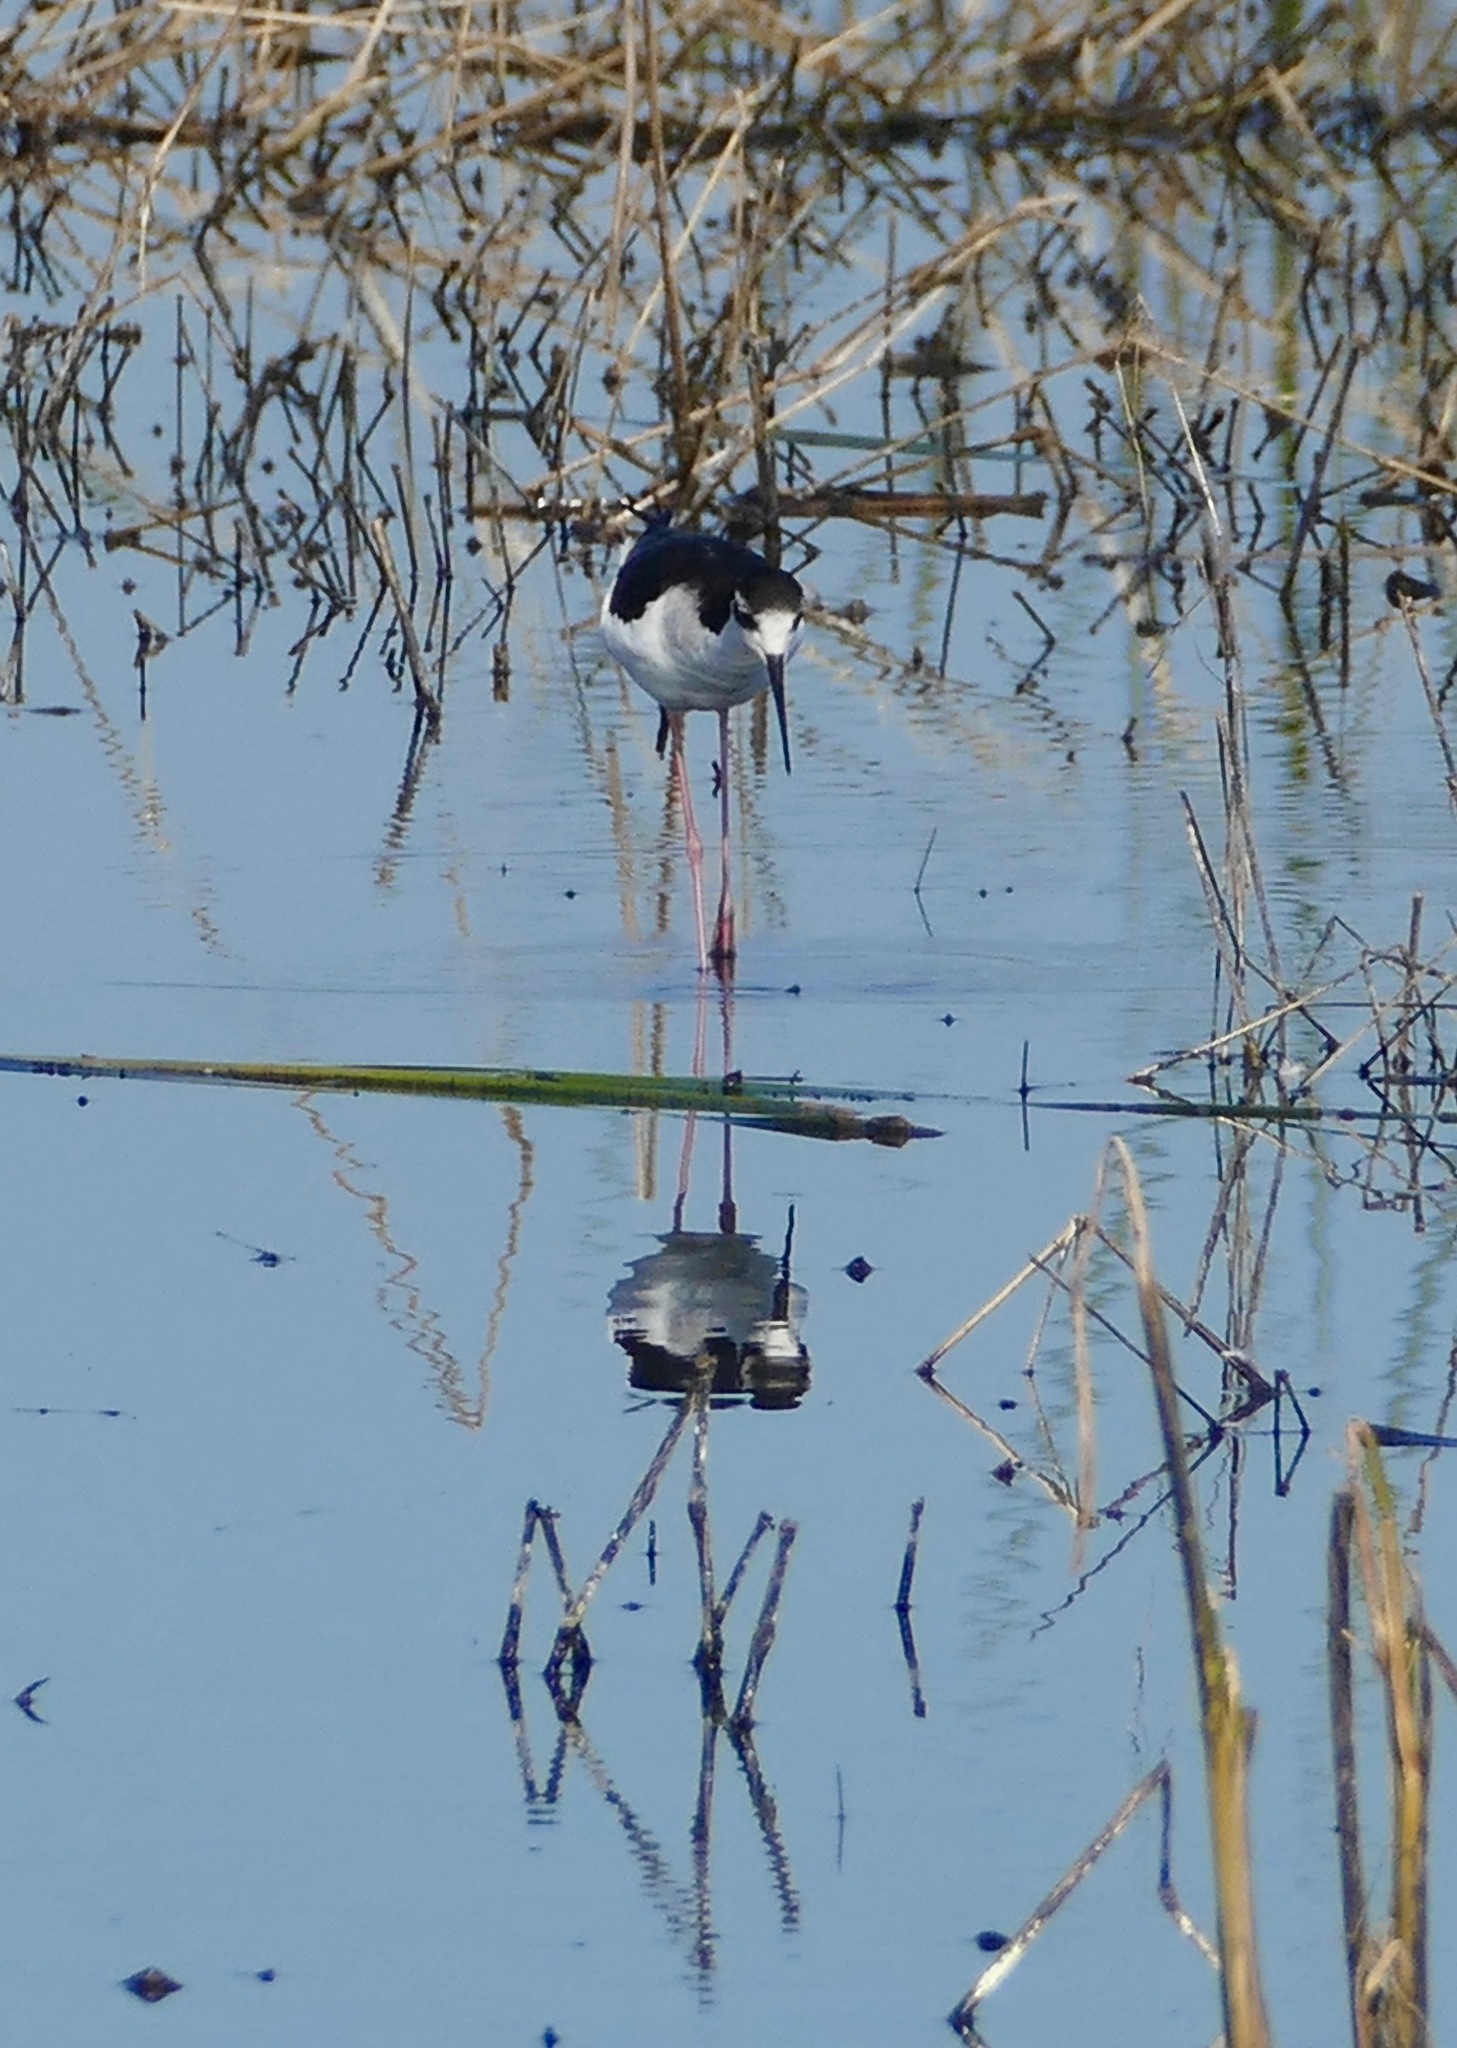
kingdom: Animalia
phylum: Chordata
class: Aves
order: Charadriiformes
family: Recurvirostridae
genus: Himantopus
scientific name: Himantopus mexicanus
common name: Black-necked stilt
